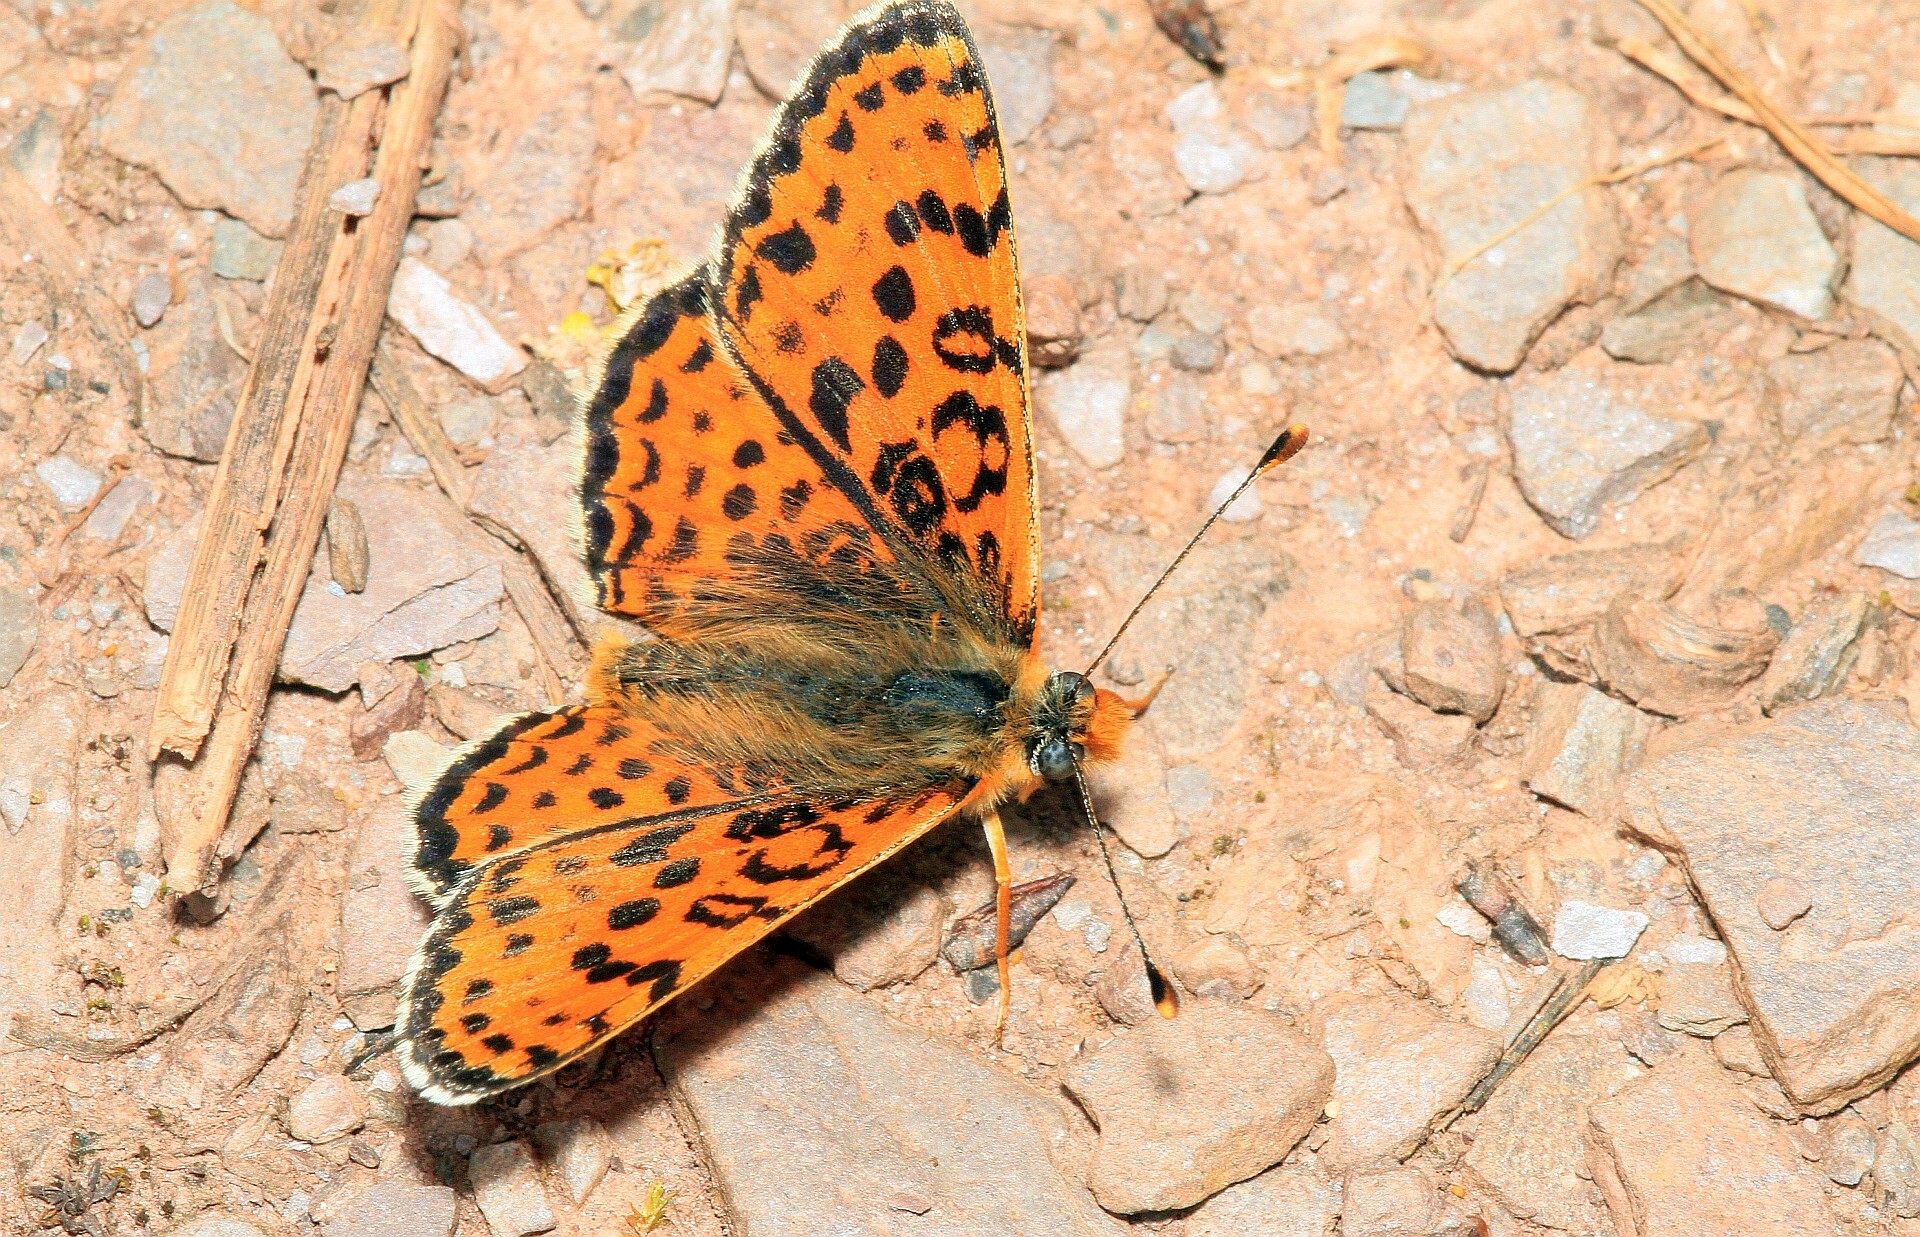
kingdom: Animalia
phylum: Arthropoda
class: Insecta
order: Lepidoptera
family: Nymphalidae
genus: Melitaea
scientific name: Melitaea didyma
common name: Spotted fritillary
